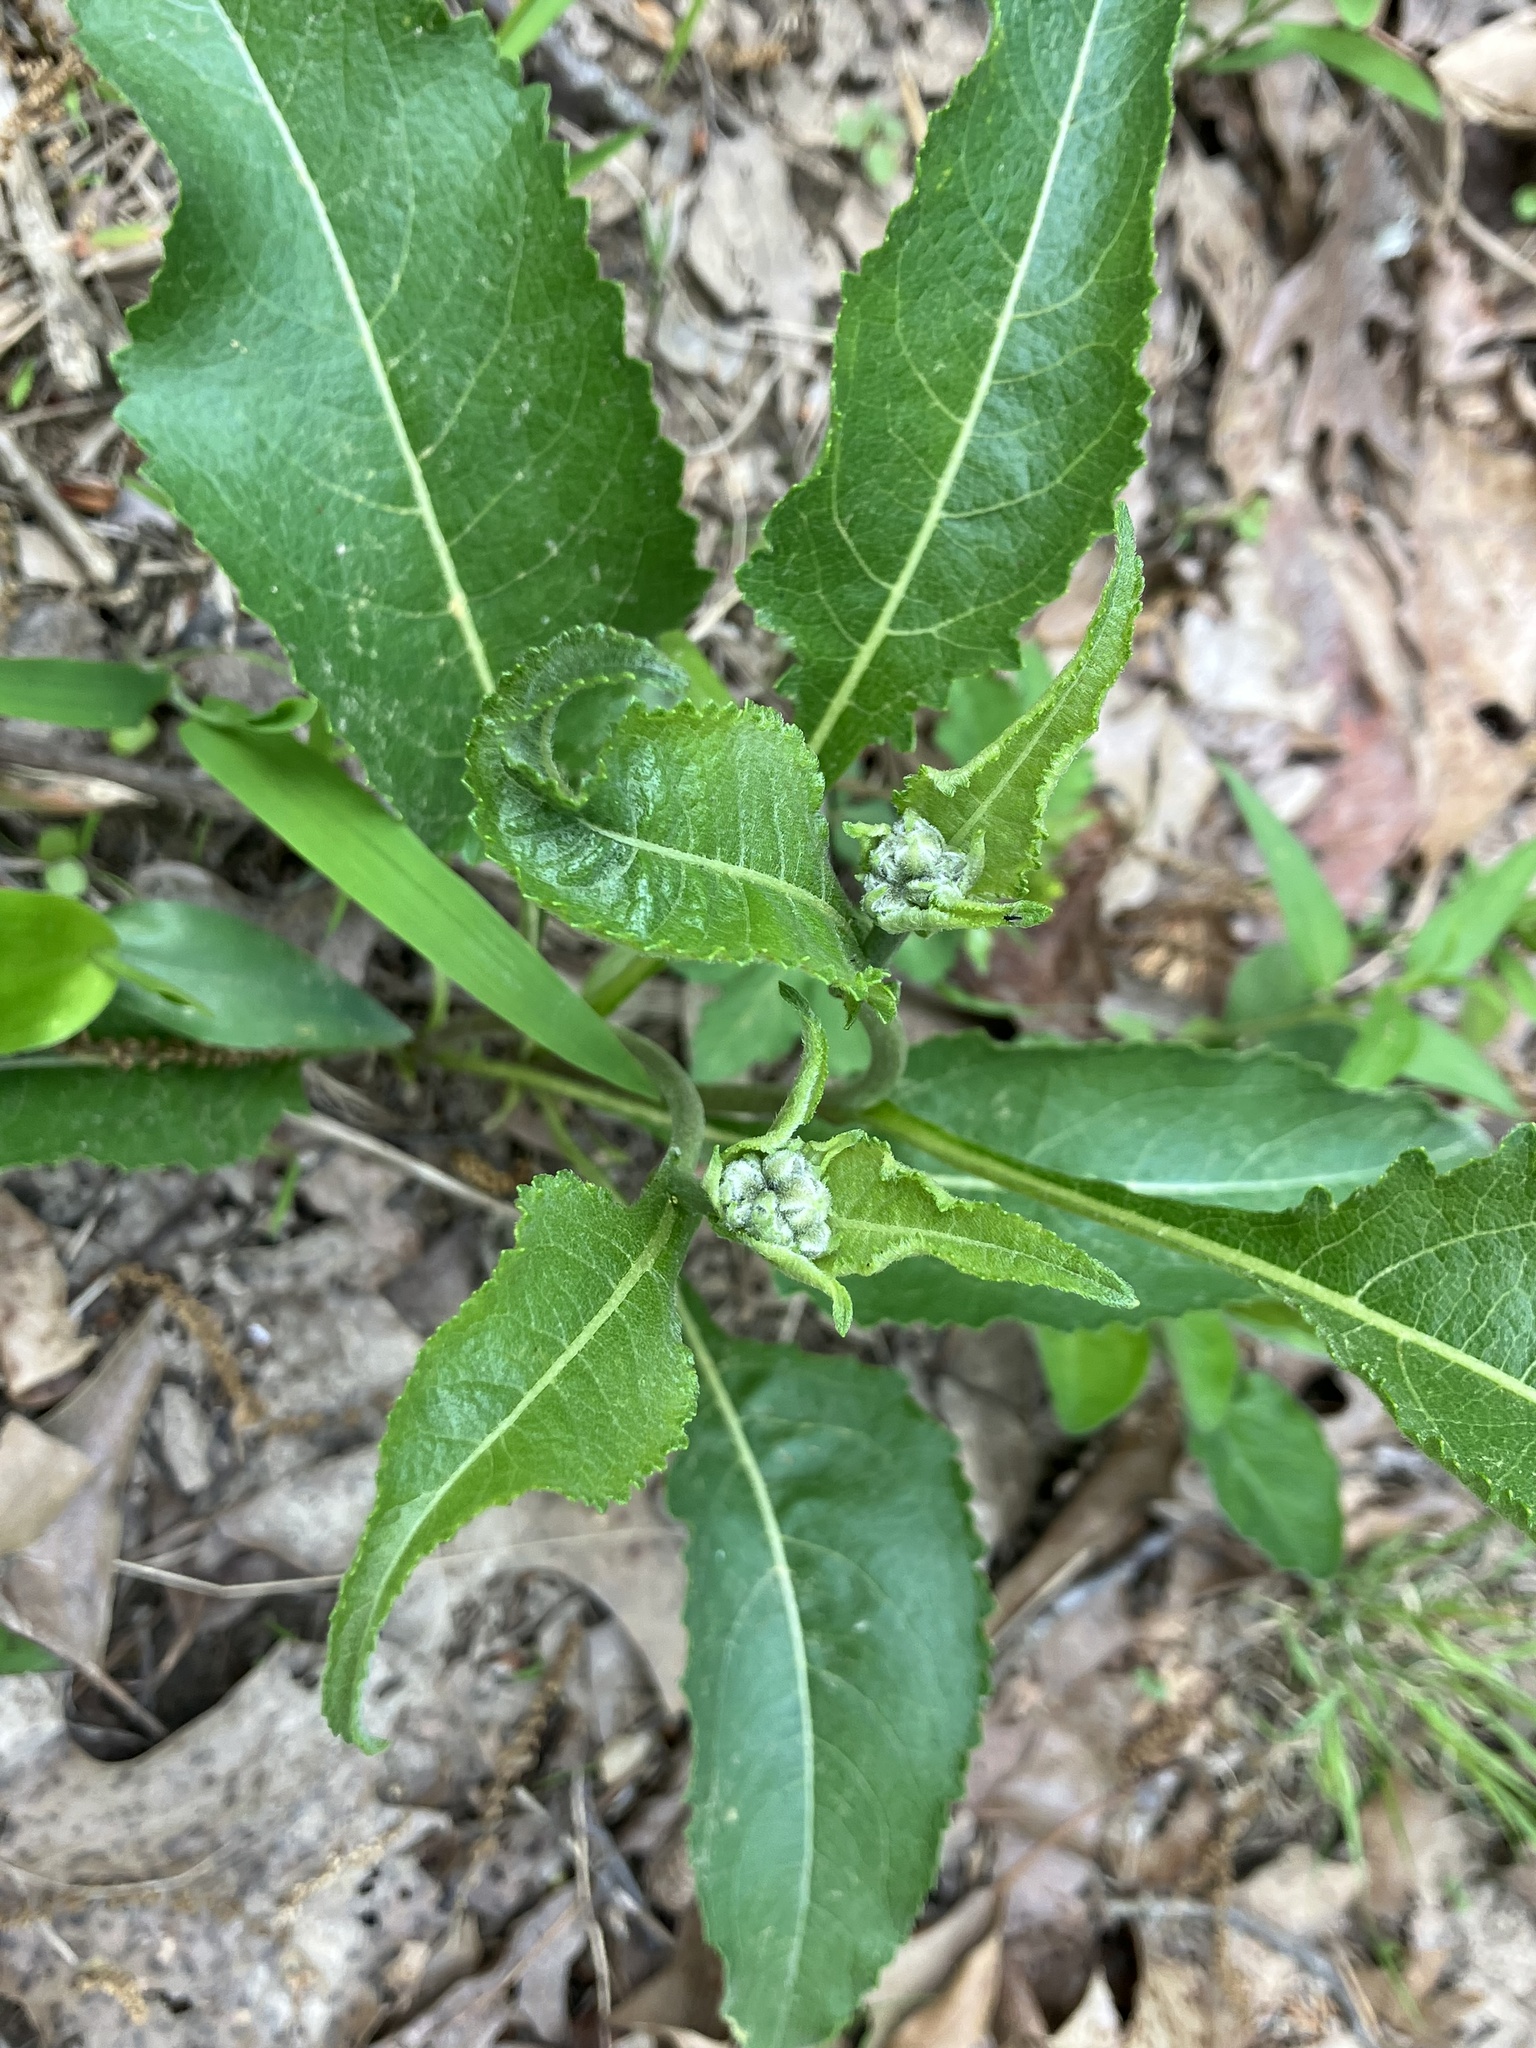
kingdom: Plantae
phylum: Tracheophyta
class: Magnoliopsida
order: Asterales
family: Asteraceae
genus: Parthenium
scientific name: Parthenium integrifolium
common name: American feverfew
